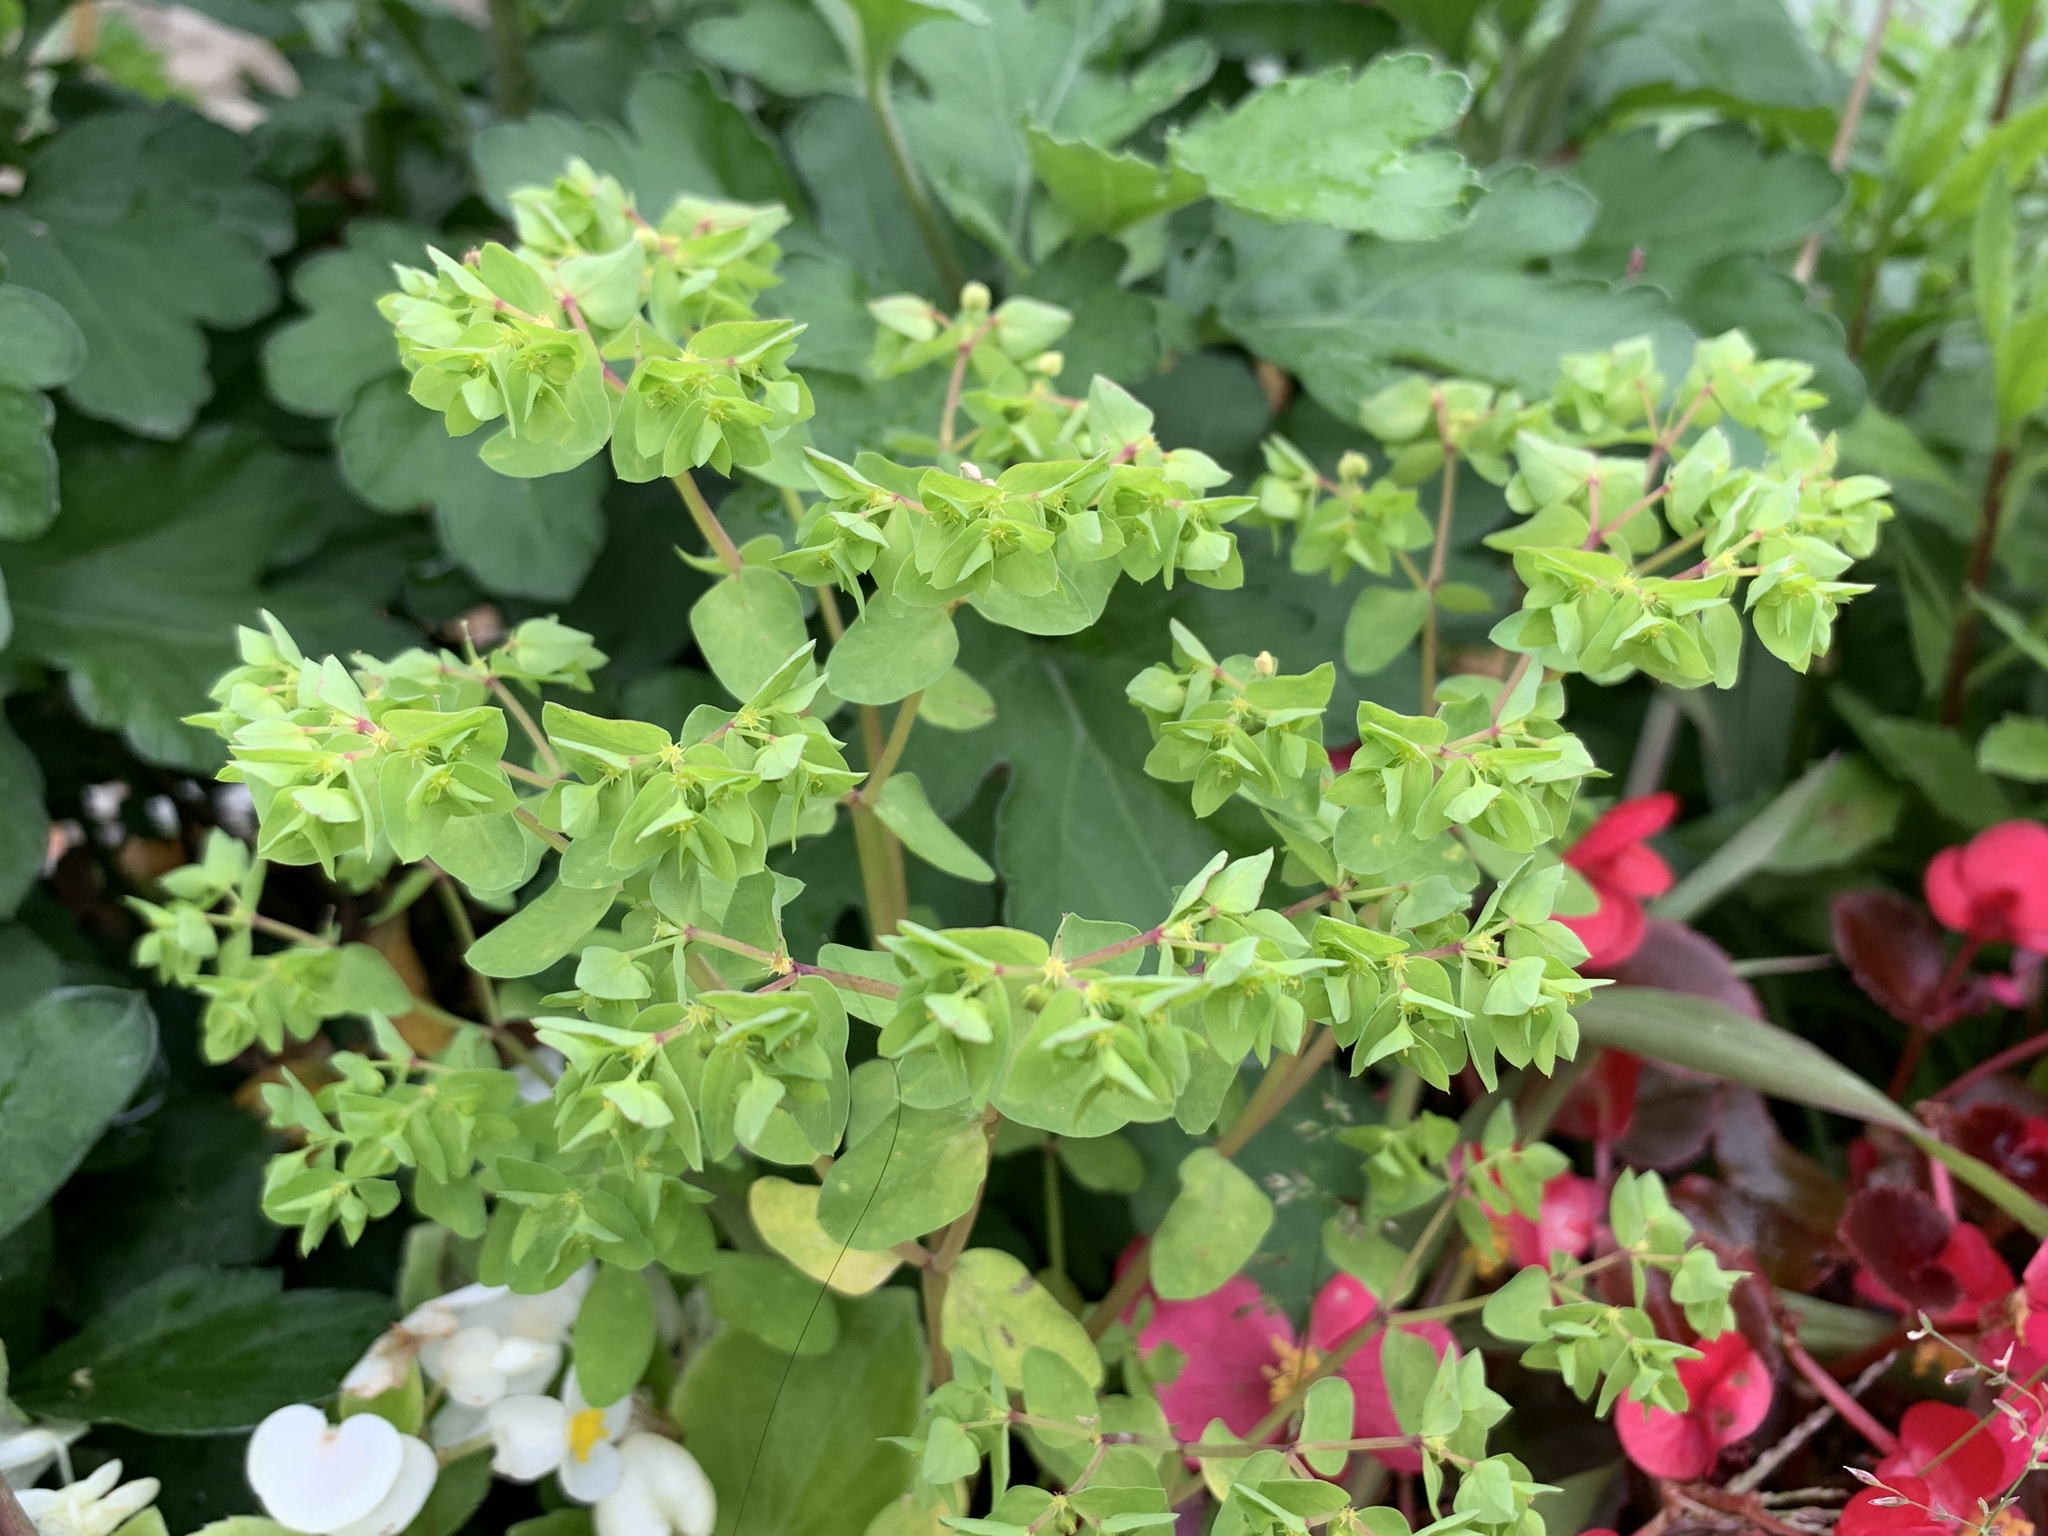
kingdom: Plantae
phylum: Tracheophyta
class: Magnoliopsida
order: Malpighiales
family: Euphorbiaceae
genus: Euphorbia
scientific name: Euphorbia peplus
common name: Petty spurge
